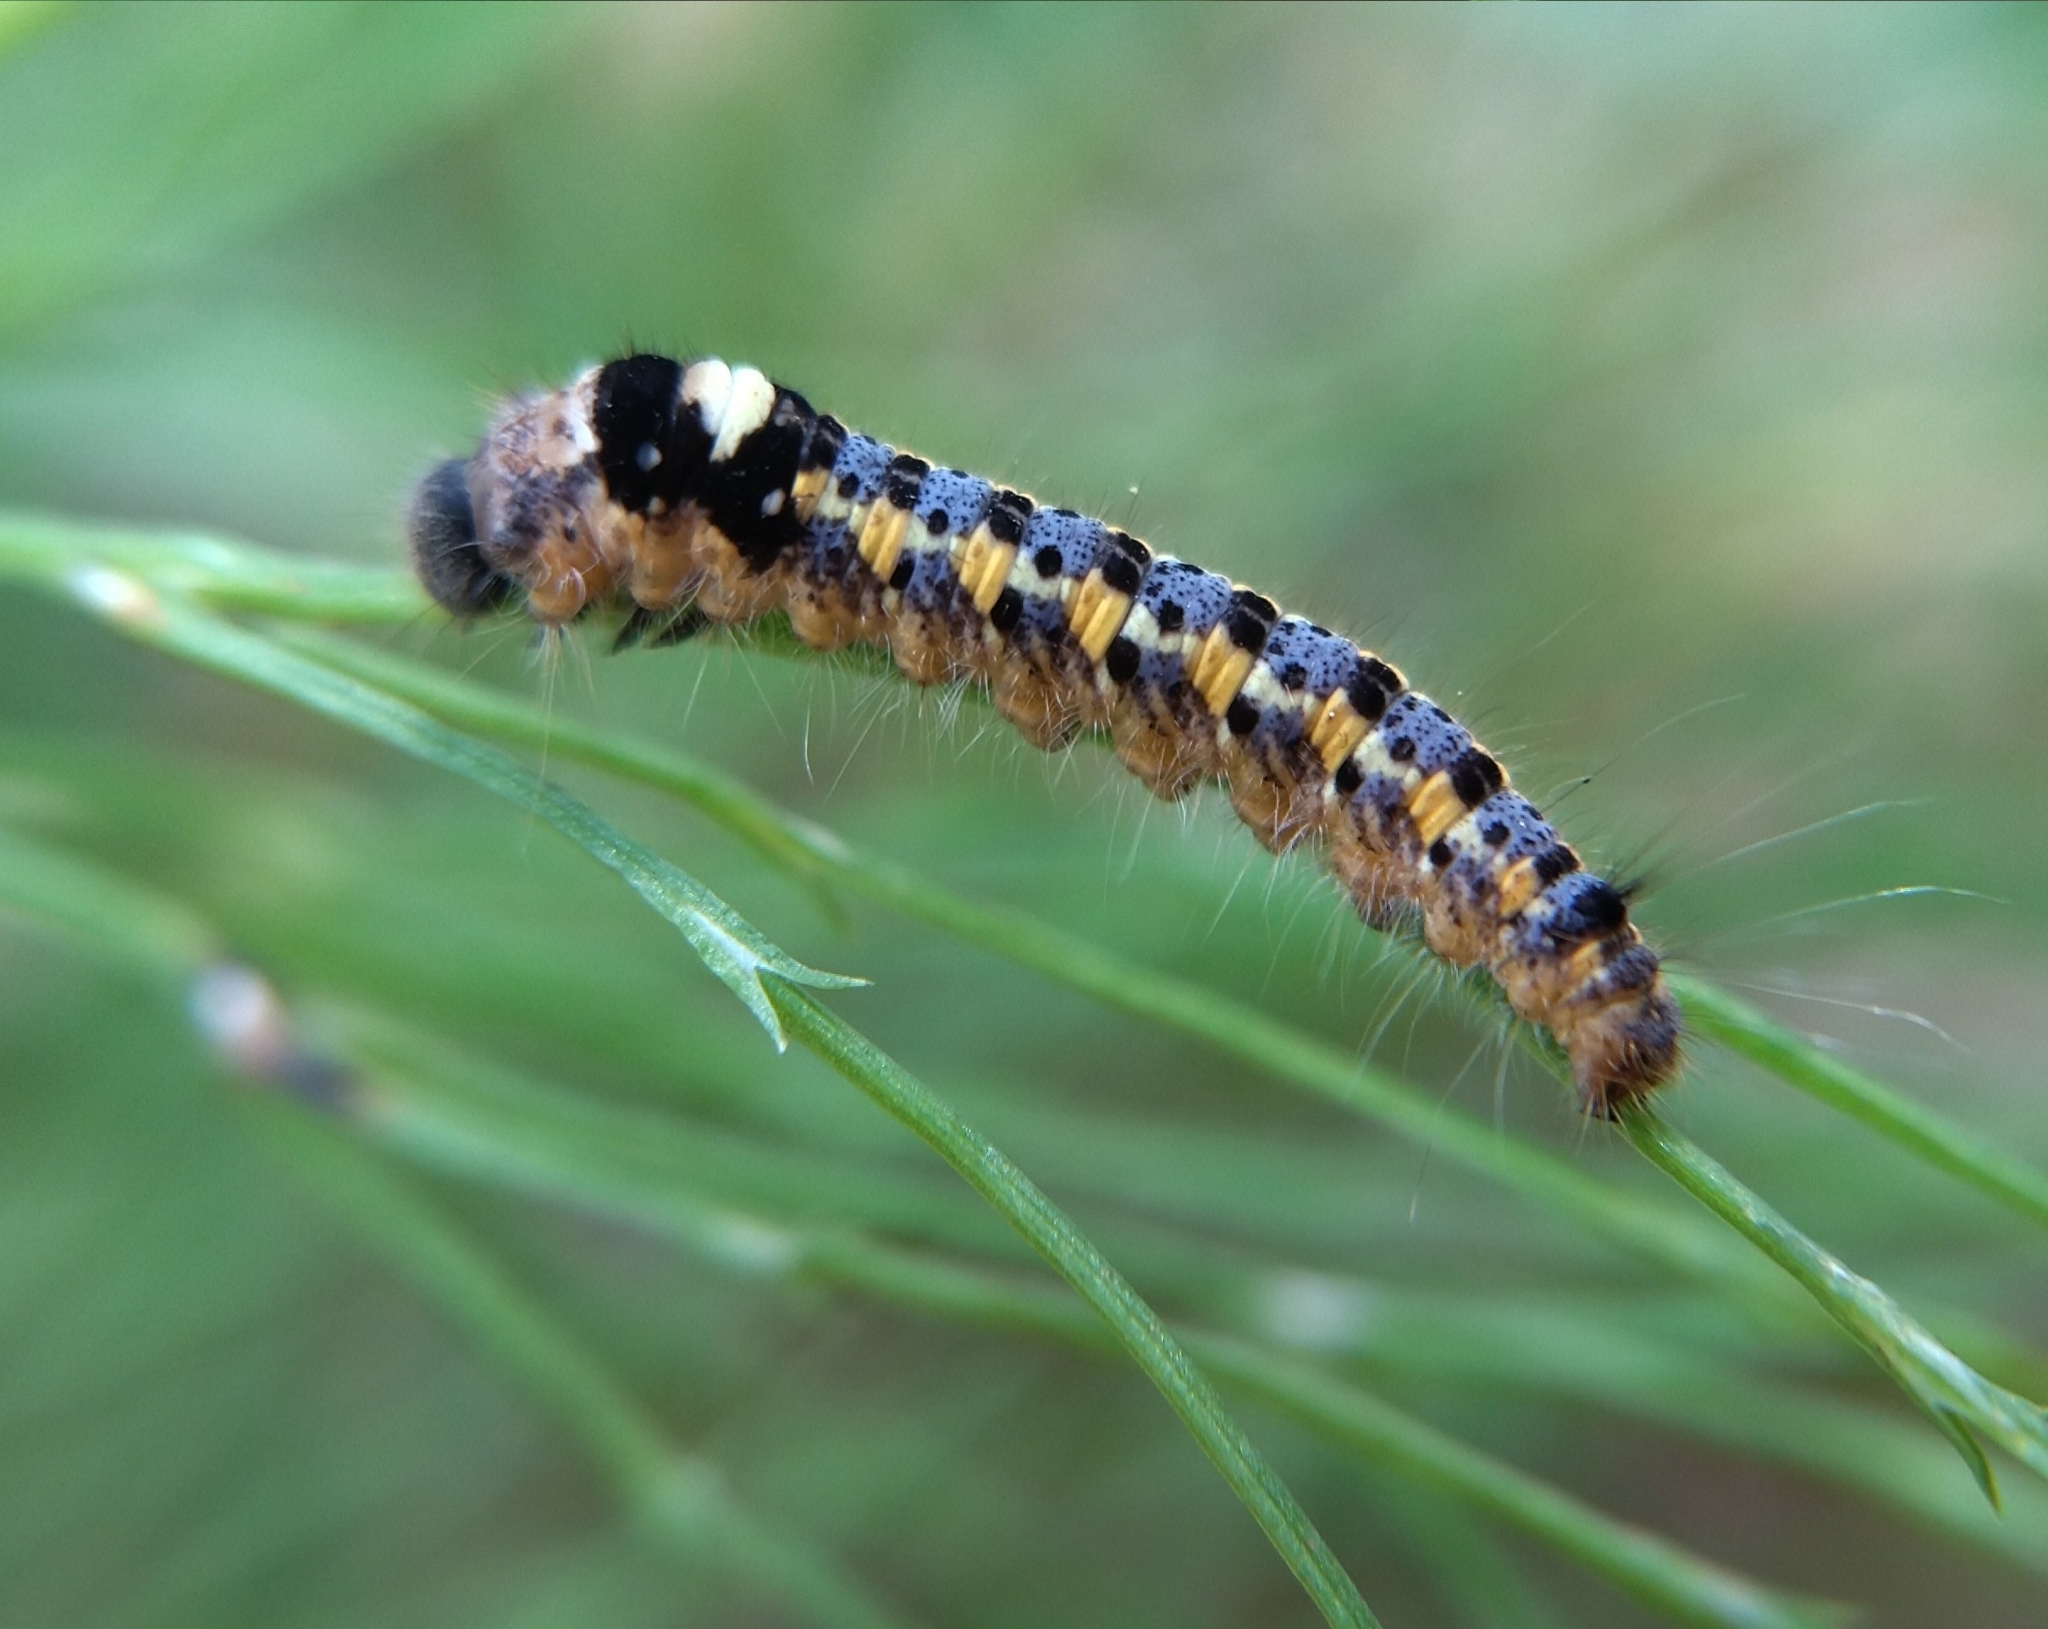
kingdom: Animalia
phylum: Arthropoda
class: Insecta
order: Lepidoptera
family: Lasiocampidae
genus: Euthrix
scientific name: Euthrix potatoria
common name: Drinker
